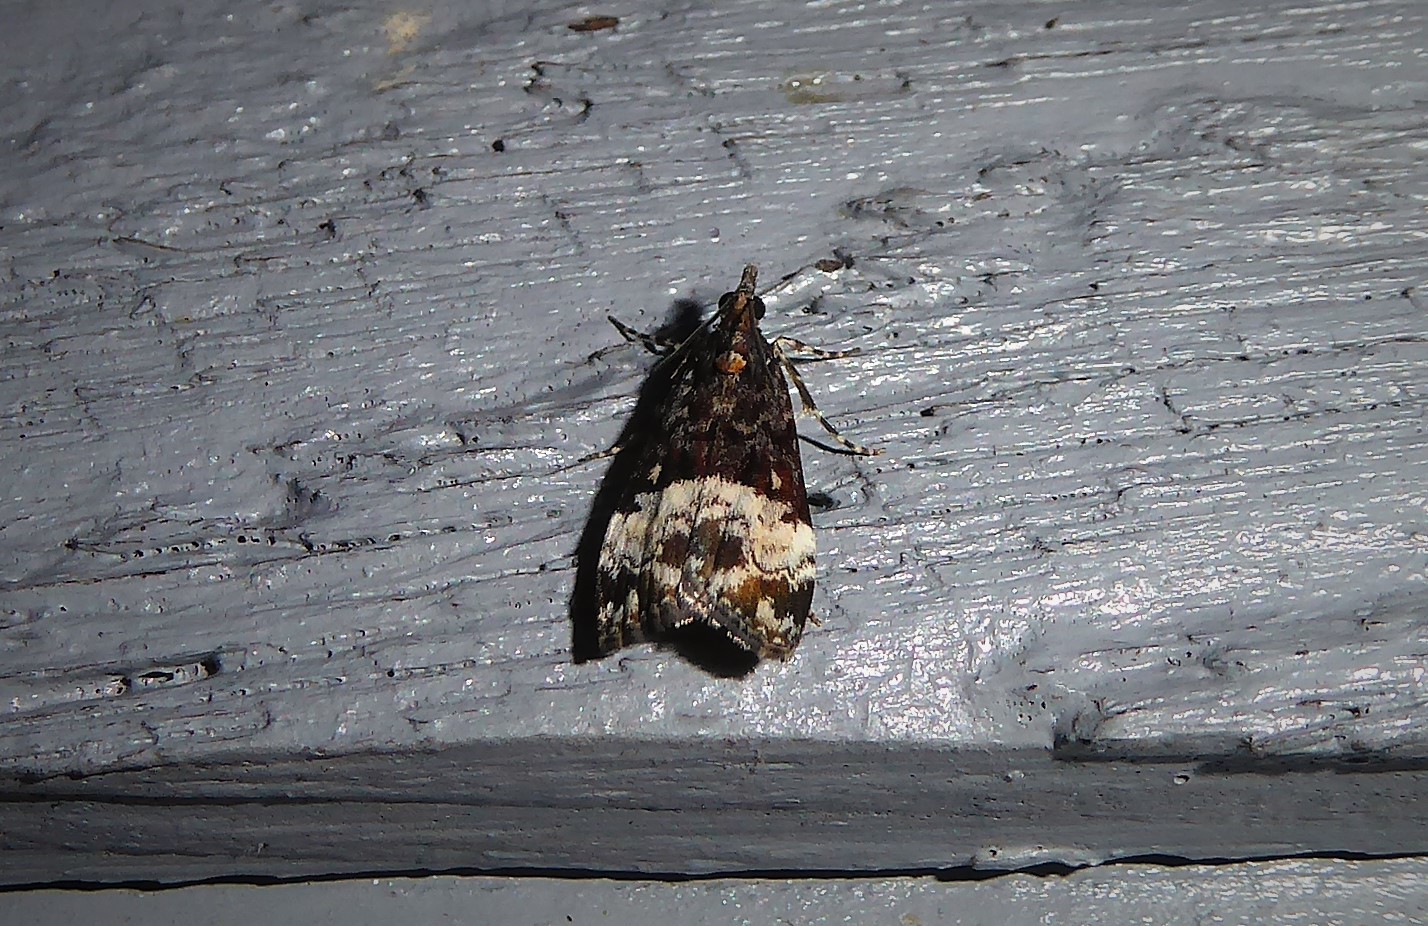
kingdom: Animalia
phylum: Arthropoda
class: Insecta
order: Lepidoptera
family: Crambidae
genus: Scoparia
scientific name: Scoparia minusculalis
